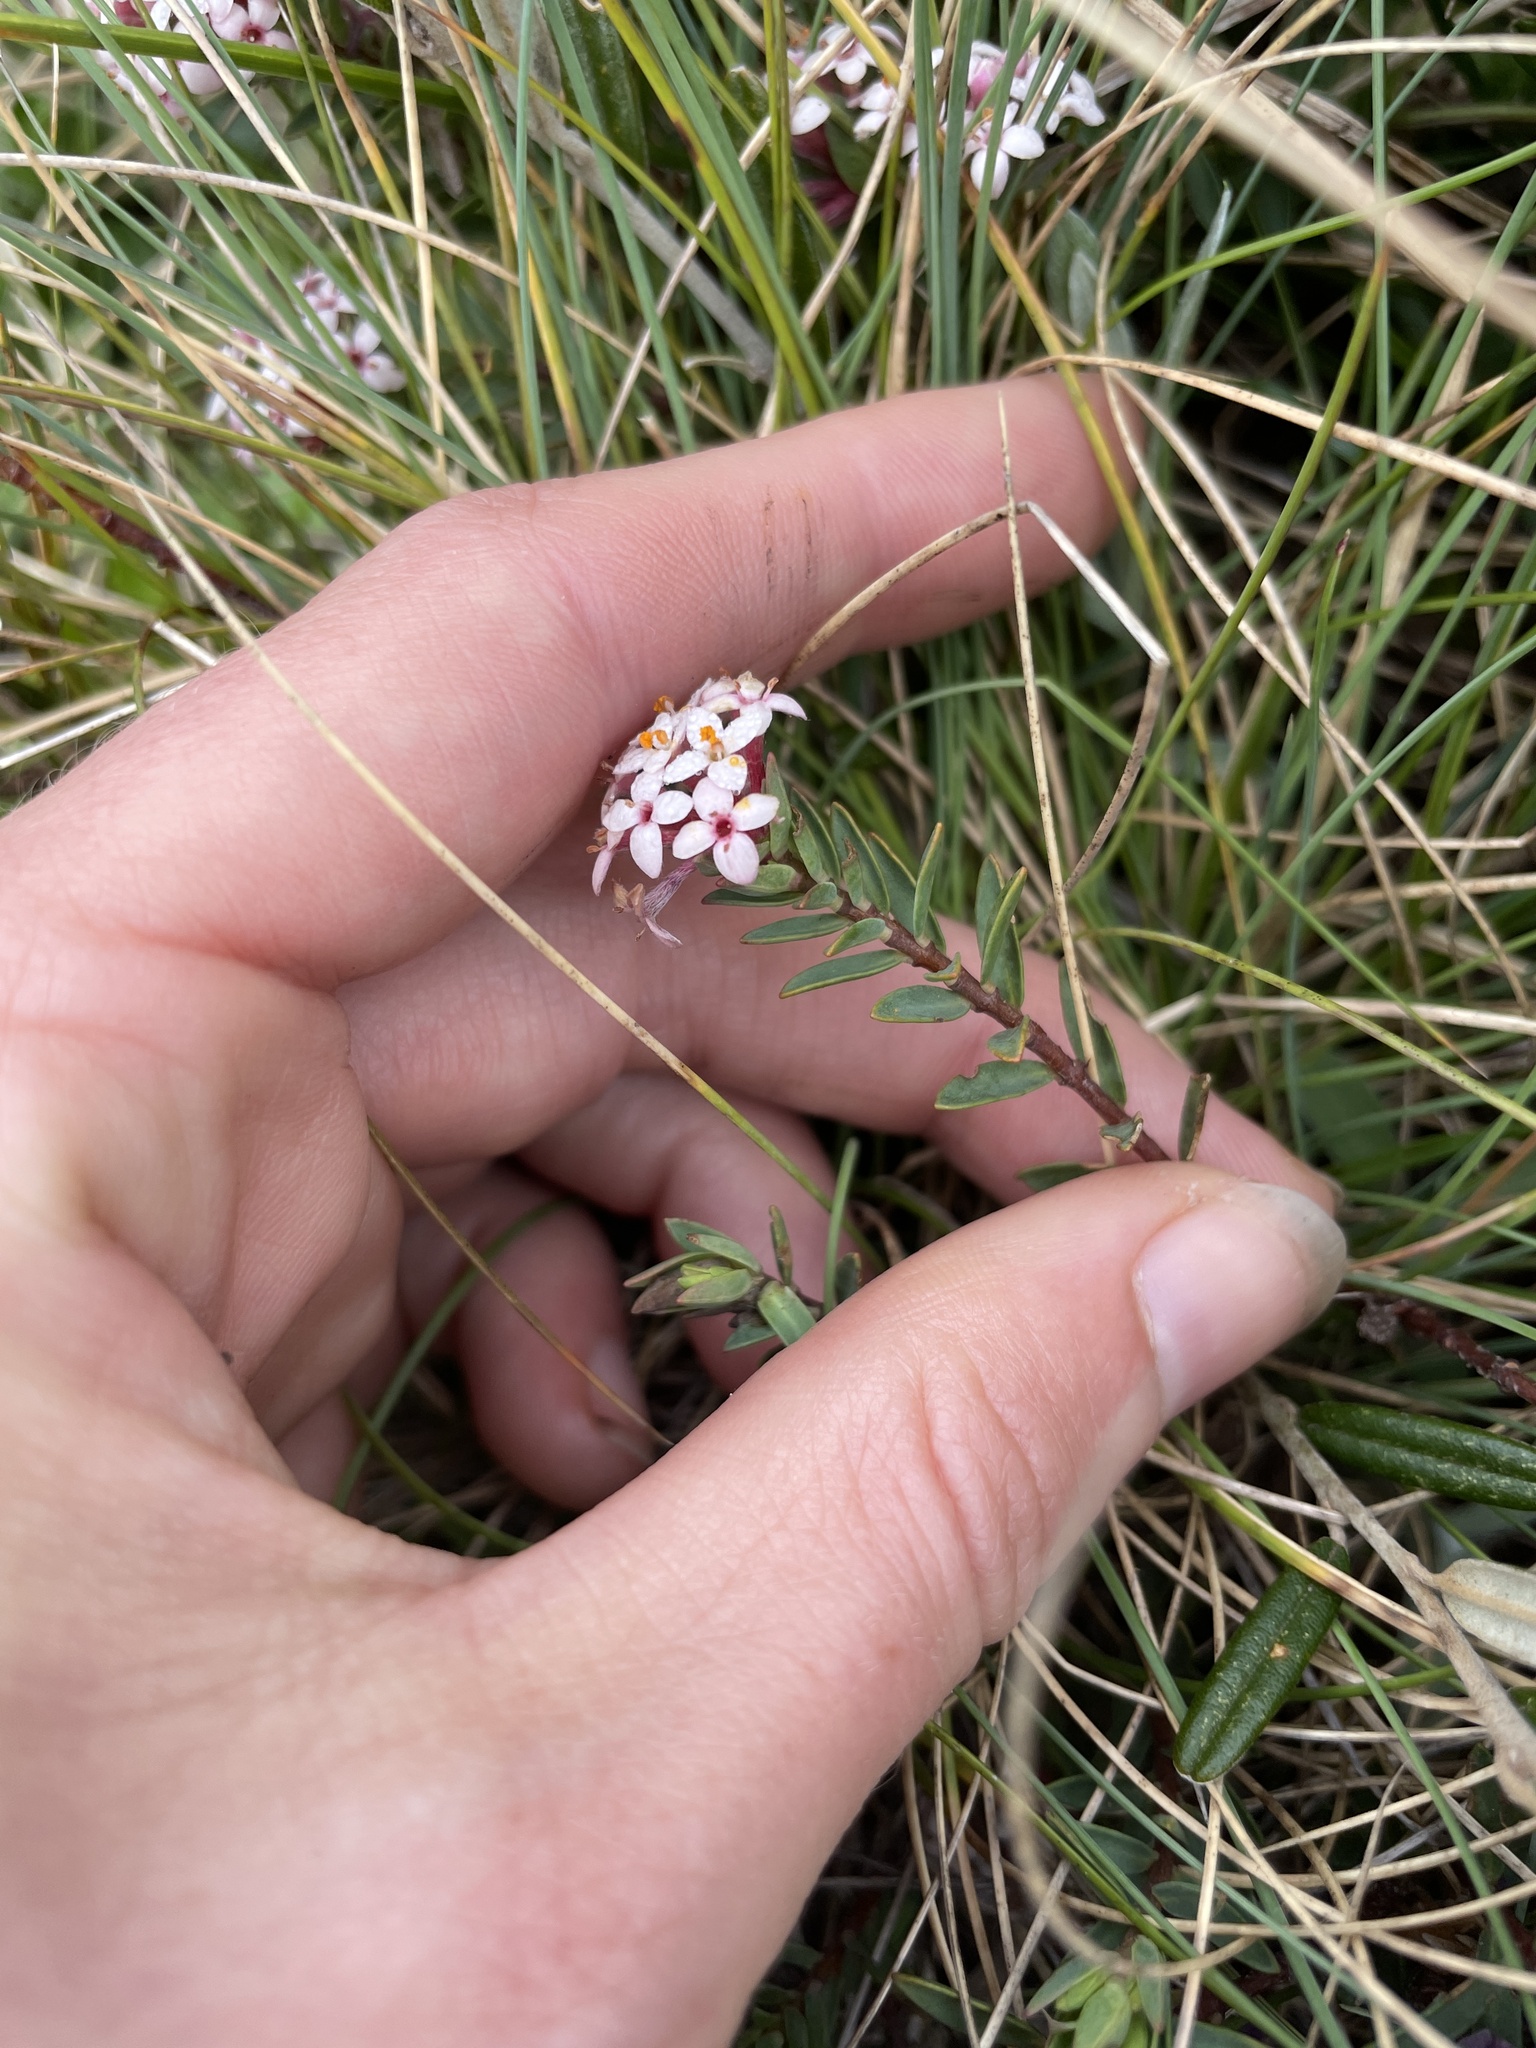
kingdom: Plantae
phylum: Tracheophyta
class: Magnoliopsida
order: Malvales
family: Thymelaeaceae
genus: Pimelea
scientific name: Pimelea alpina
